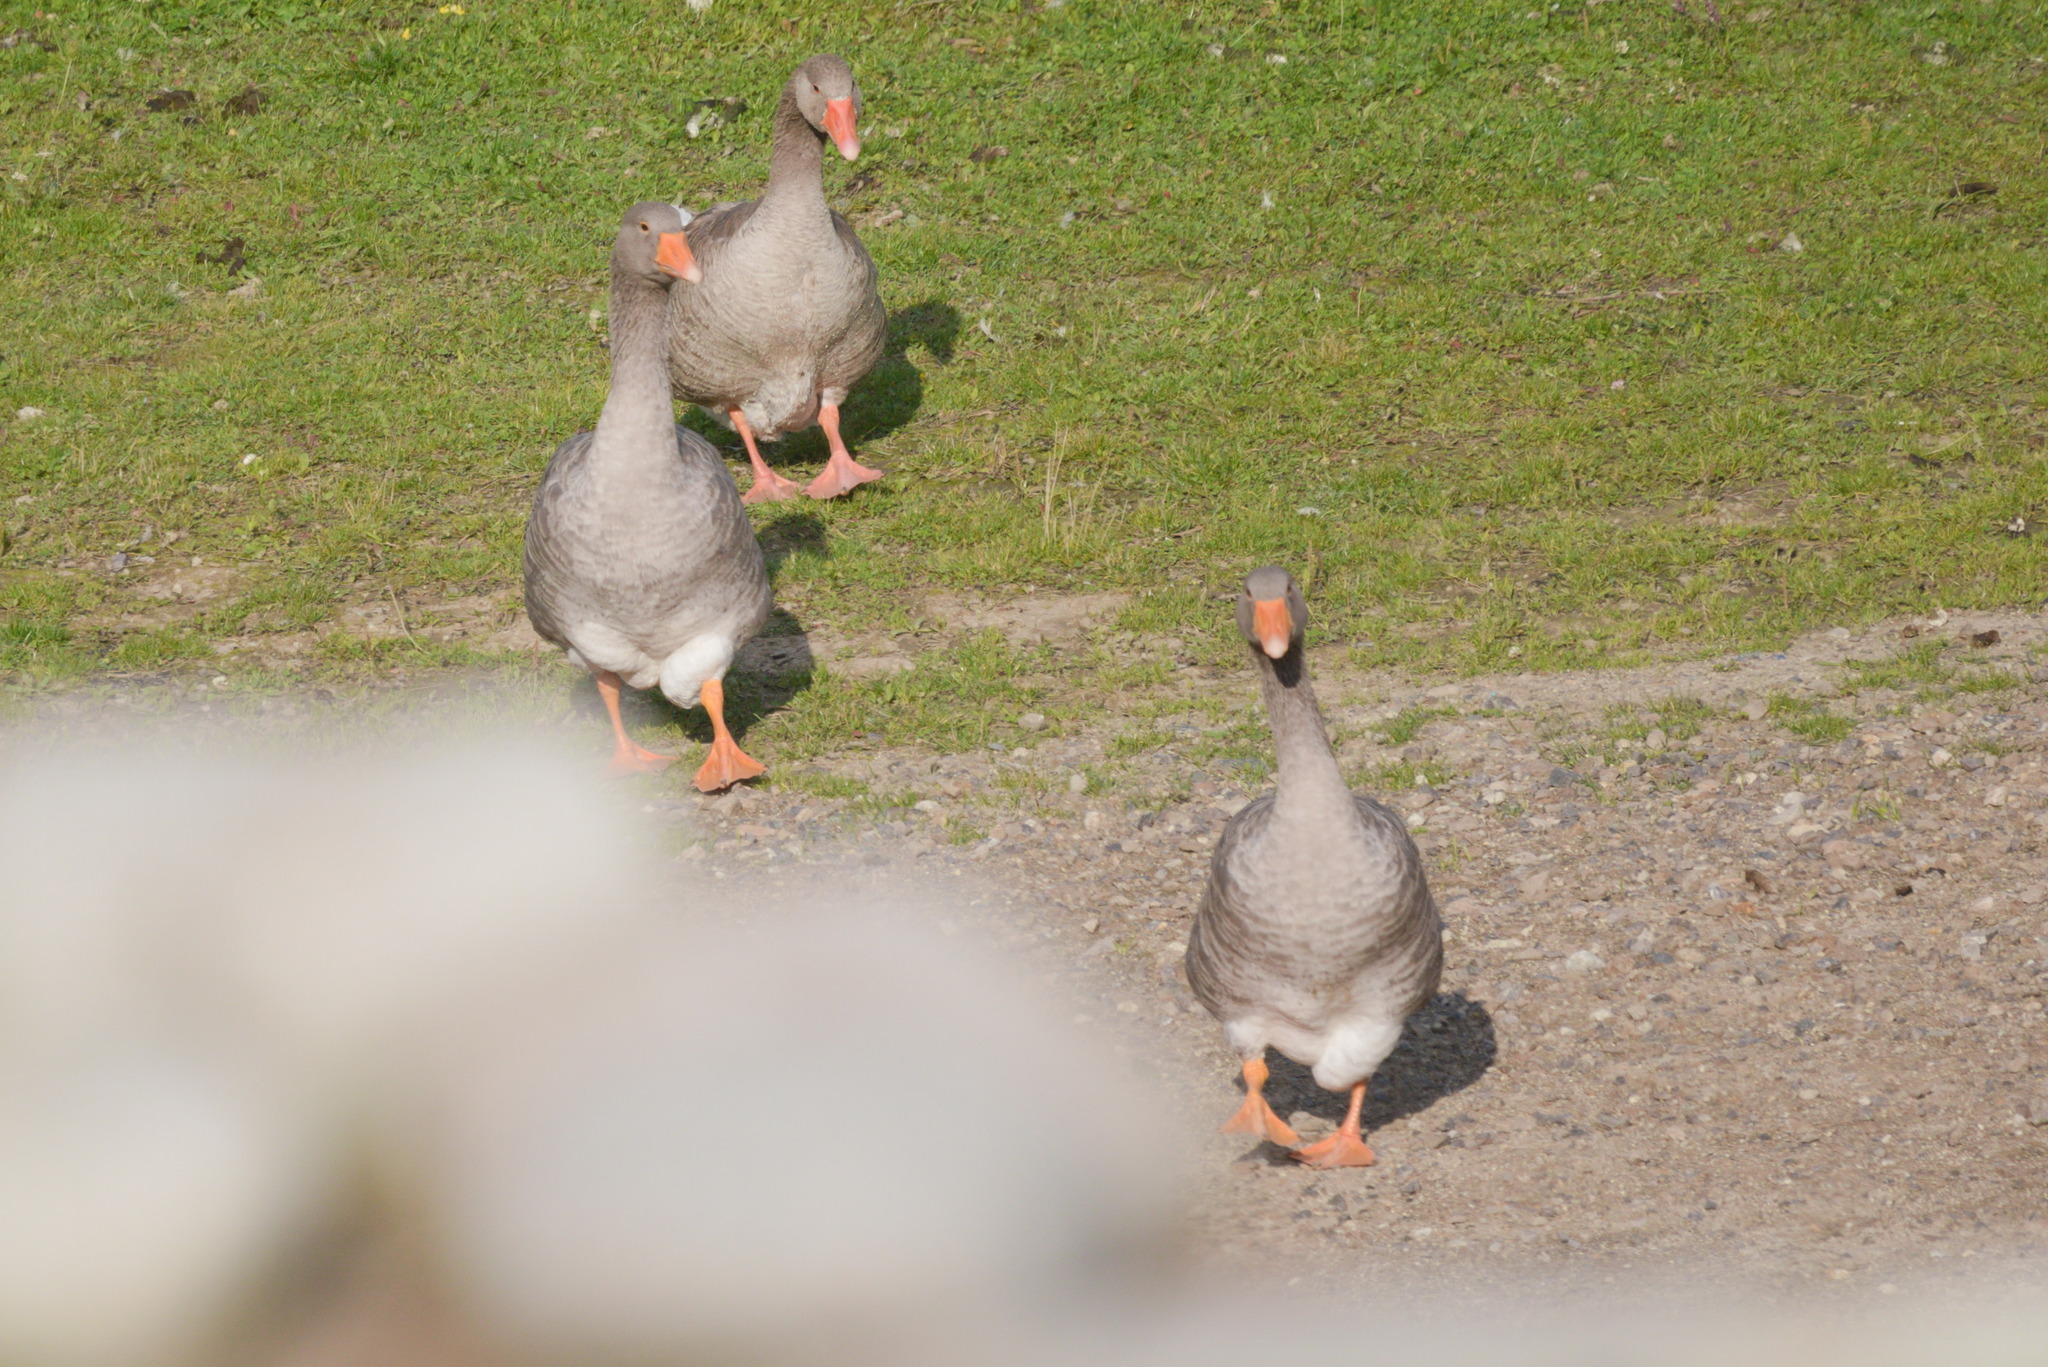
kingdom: Animalia
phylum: Chordata
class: Aves
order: Anseriformes
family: Anatidae
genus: Anser
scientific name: Anser anser
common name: Greylag goose
